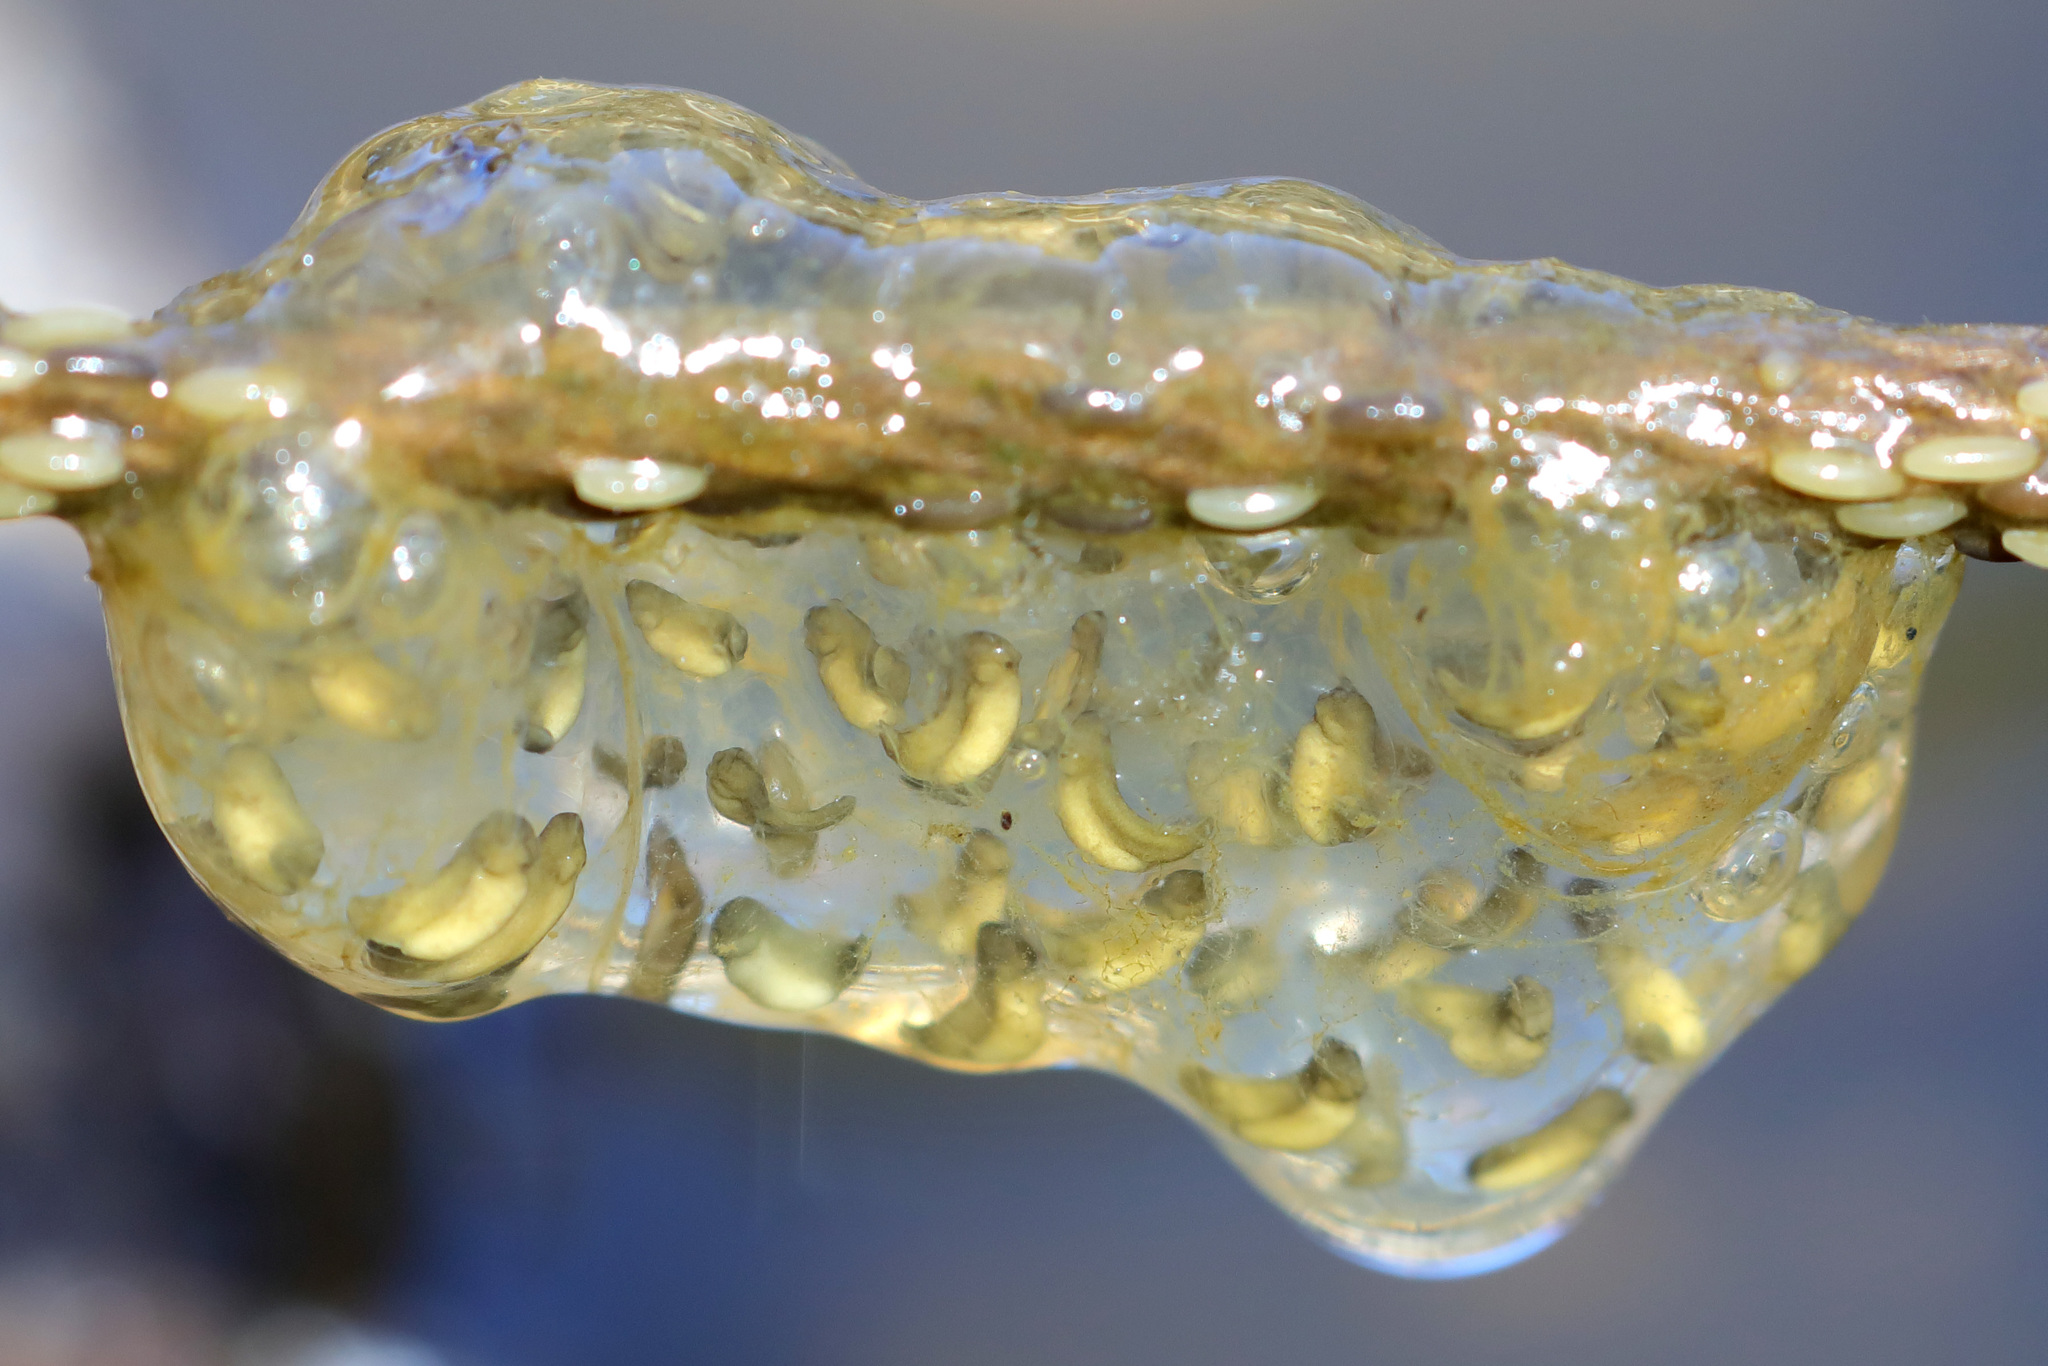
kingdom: Animalia
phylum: Chordata
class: Amphibia
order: Anura
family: Hylidae
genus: Pseudacris
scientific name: Pseudacris regilla
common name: Pacific chorus frog
